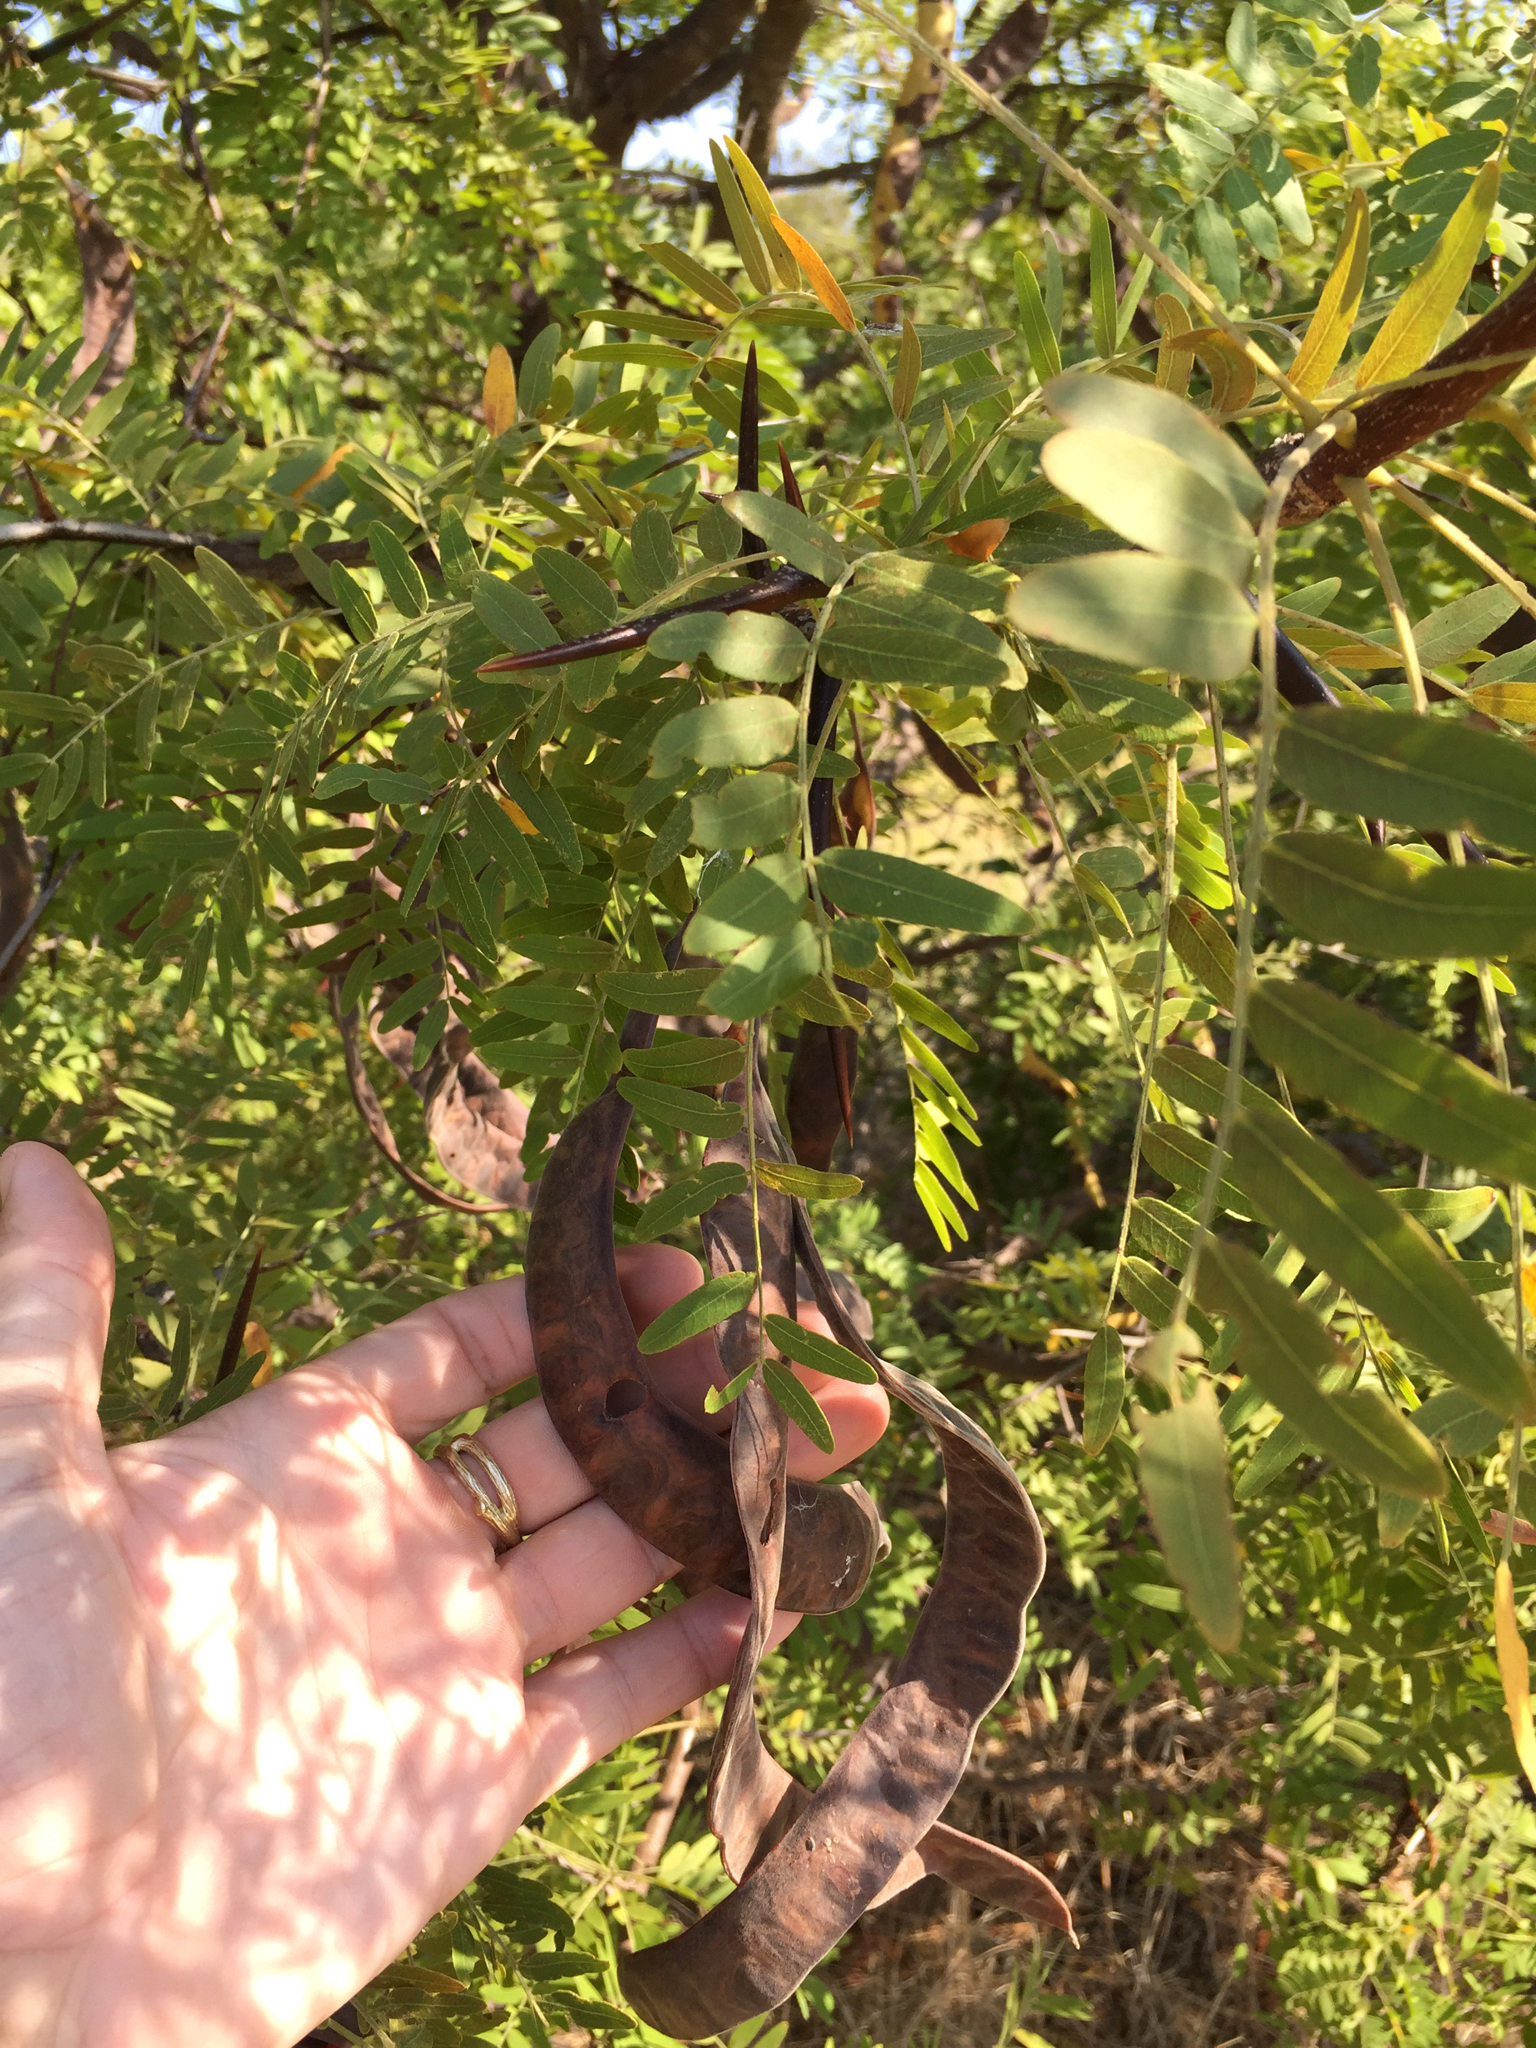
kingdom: Plantae
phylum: Tracheophyta
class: Magnoliopsida
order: Fabales
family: Fabaceae
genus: Gleditsia
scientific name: Gleditsia triacanthos
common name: Common honeylocust
